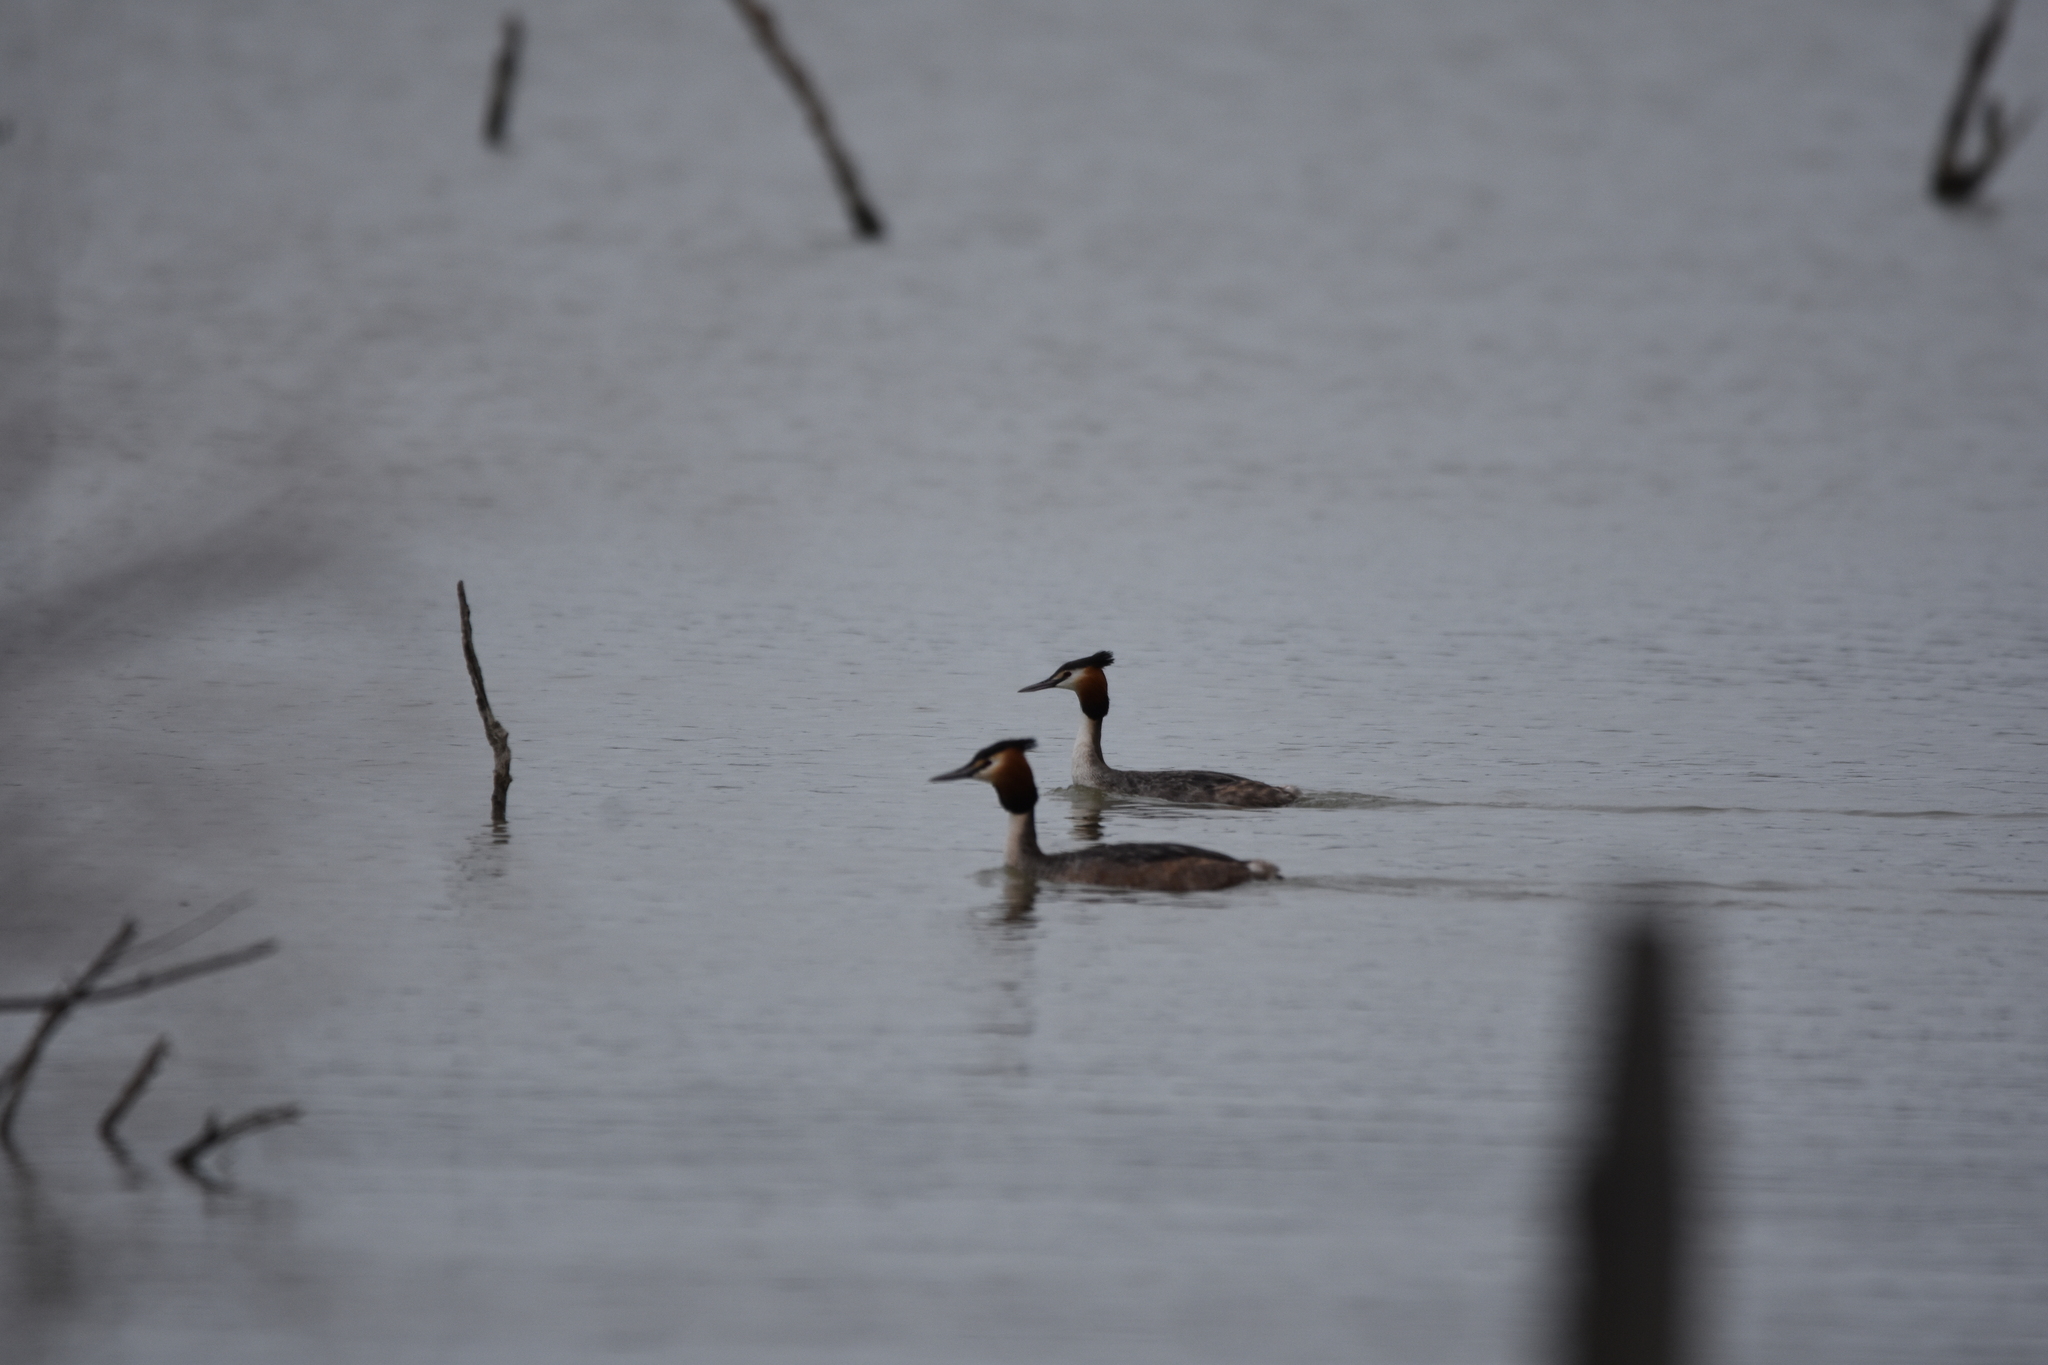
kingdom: Animalia
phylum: Chordata
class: Aves
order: Podicipediformes
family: Podicipedidae
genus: Podiceps
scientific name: Podiceps cristatus
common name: Great crested grebe
